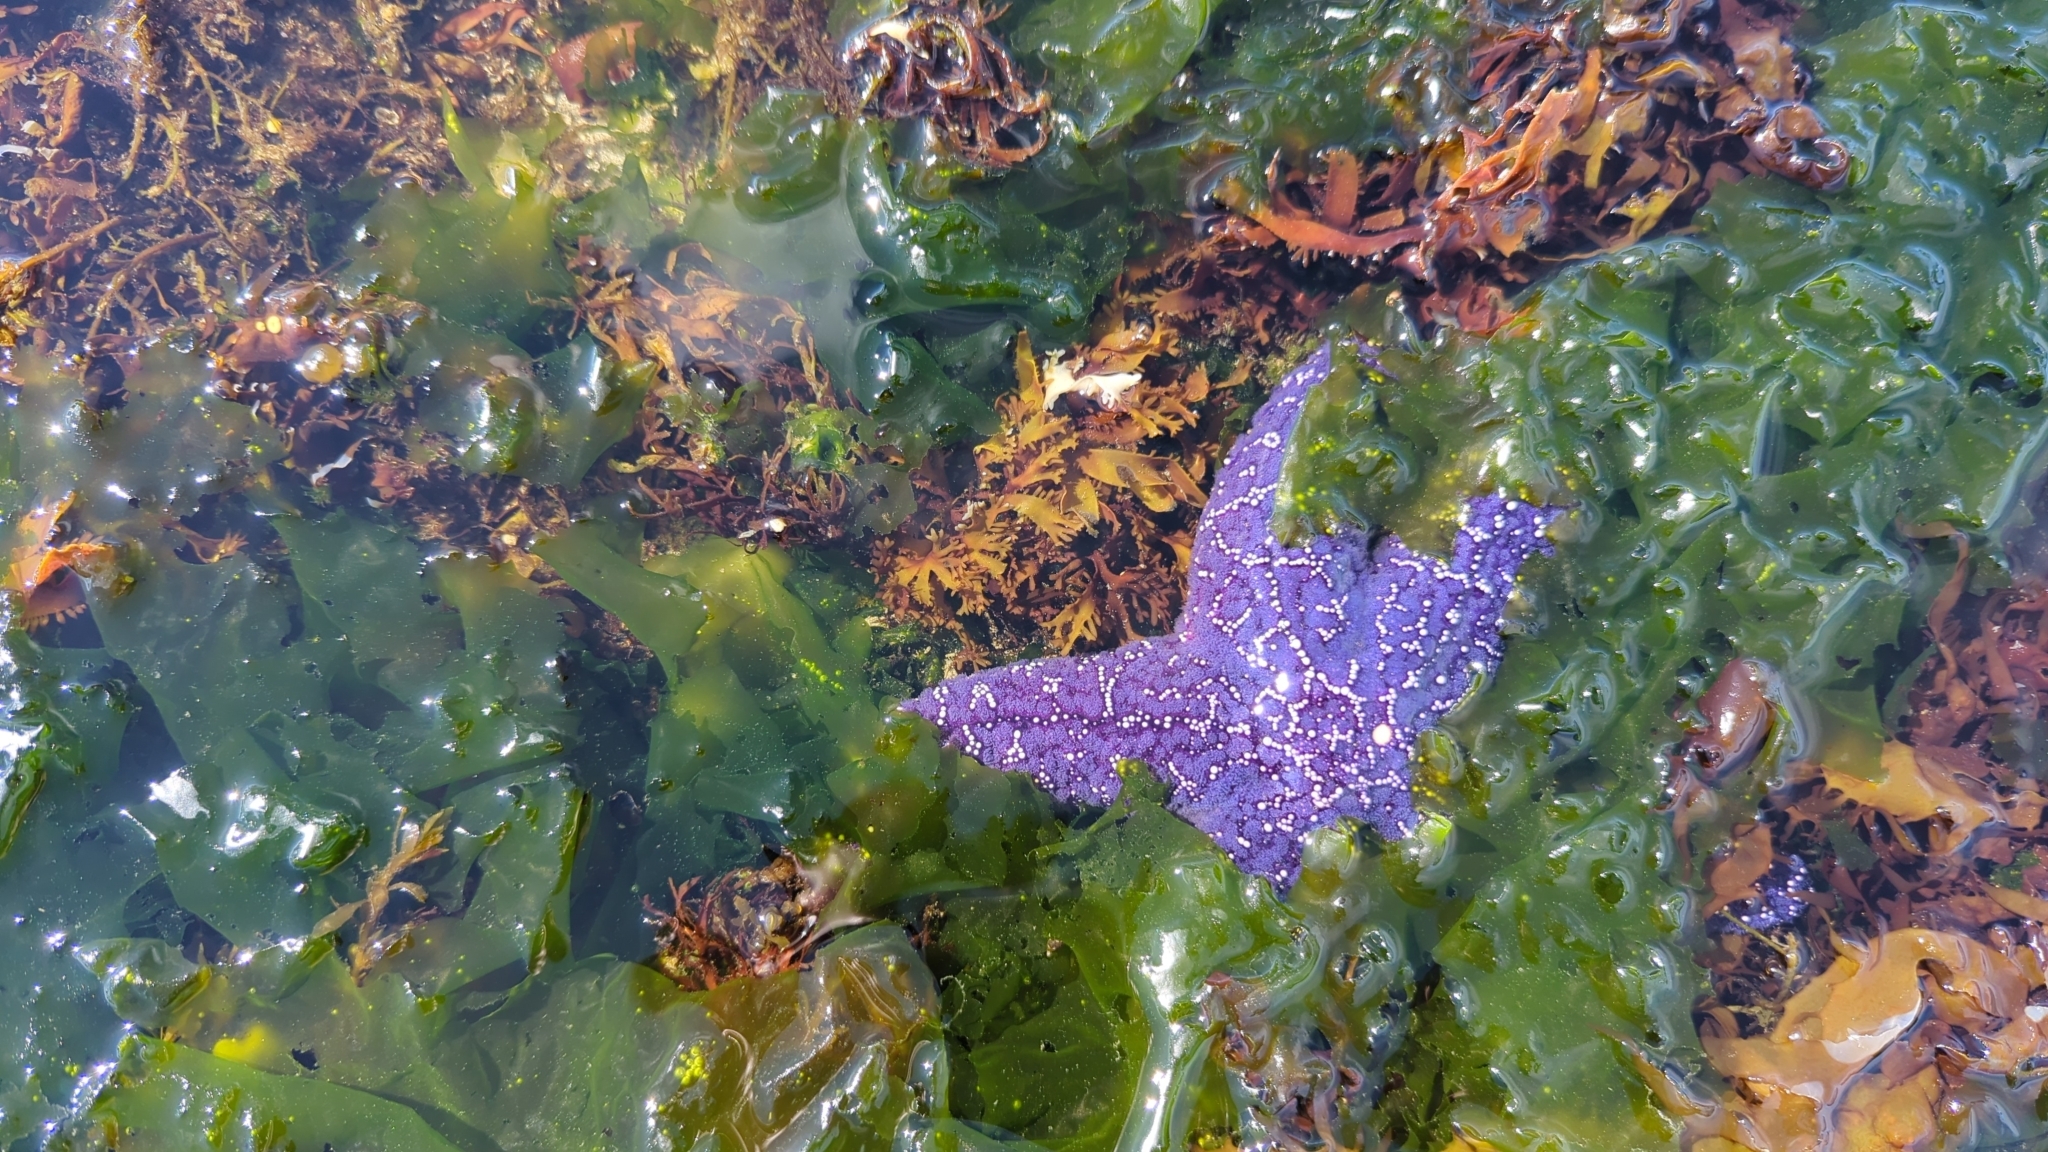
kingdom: Animalia
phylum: Echinodermata
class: Asteroidea
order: Forcipulatida
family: Asteriidae
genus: Pisaster
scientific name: Pisaster ochraceus
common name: Ochre stars
